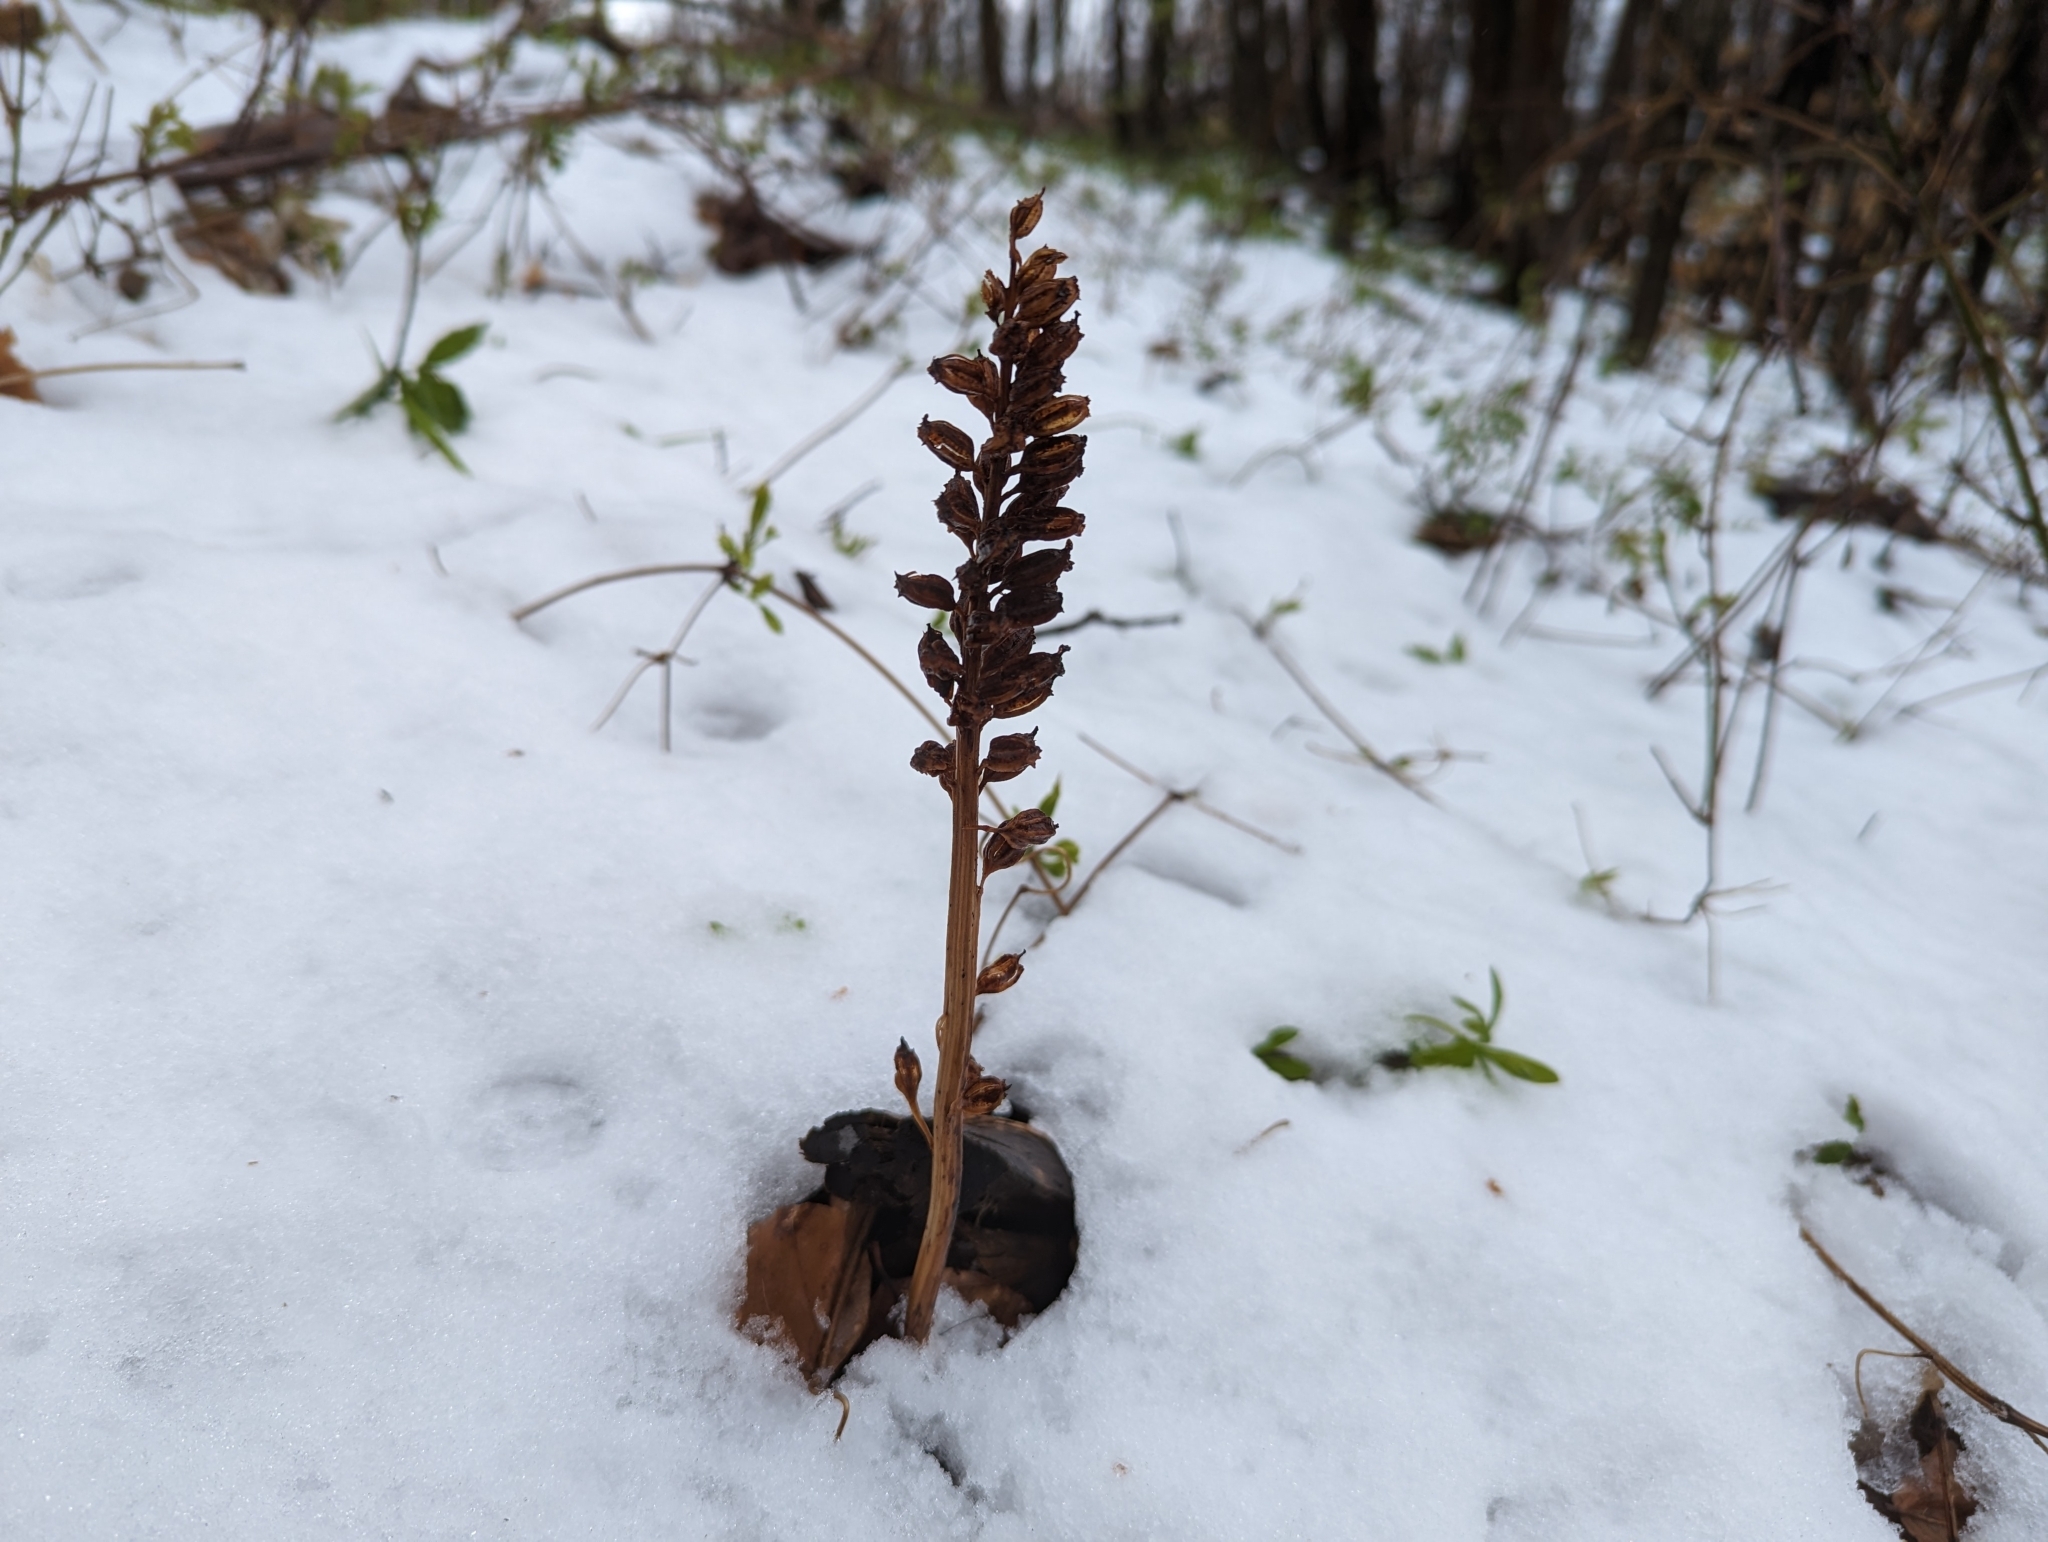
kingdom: Plantae
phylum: Tracheophyta
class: Liliopsida
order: Asparagales
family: Orchidaceae
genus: Neottia
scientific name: Neottia nidus-avis
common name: Bird's-nest orchid
